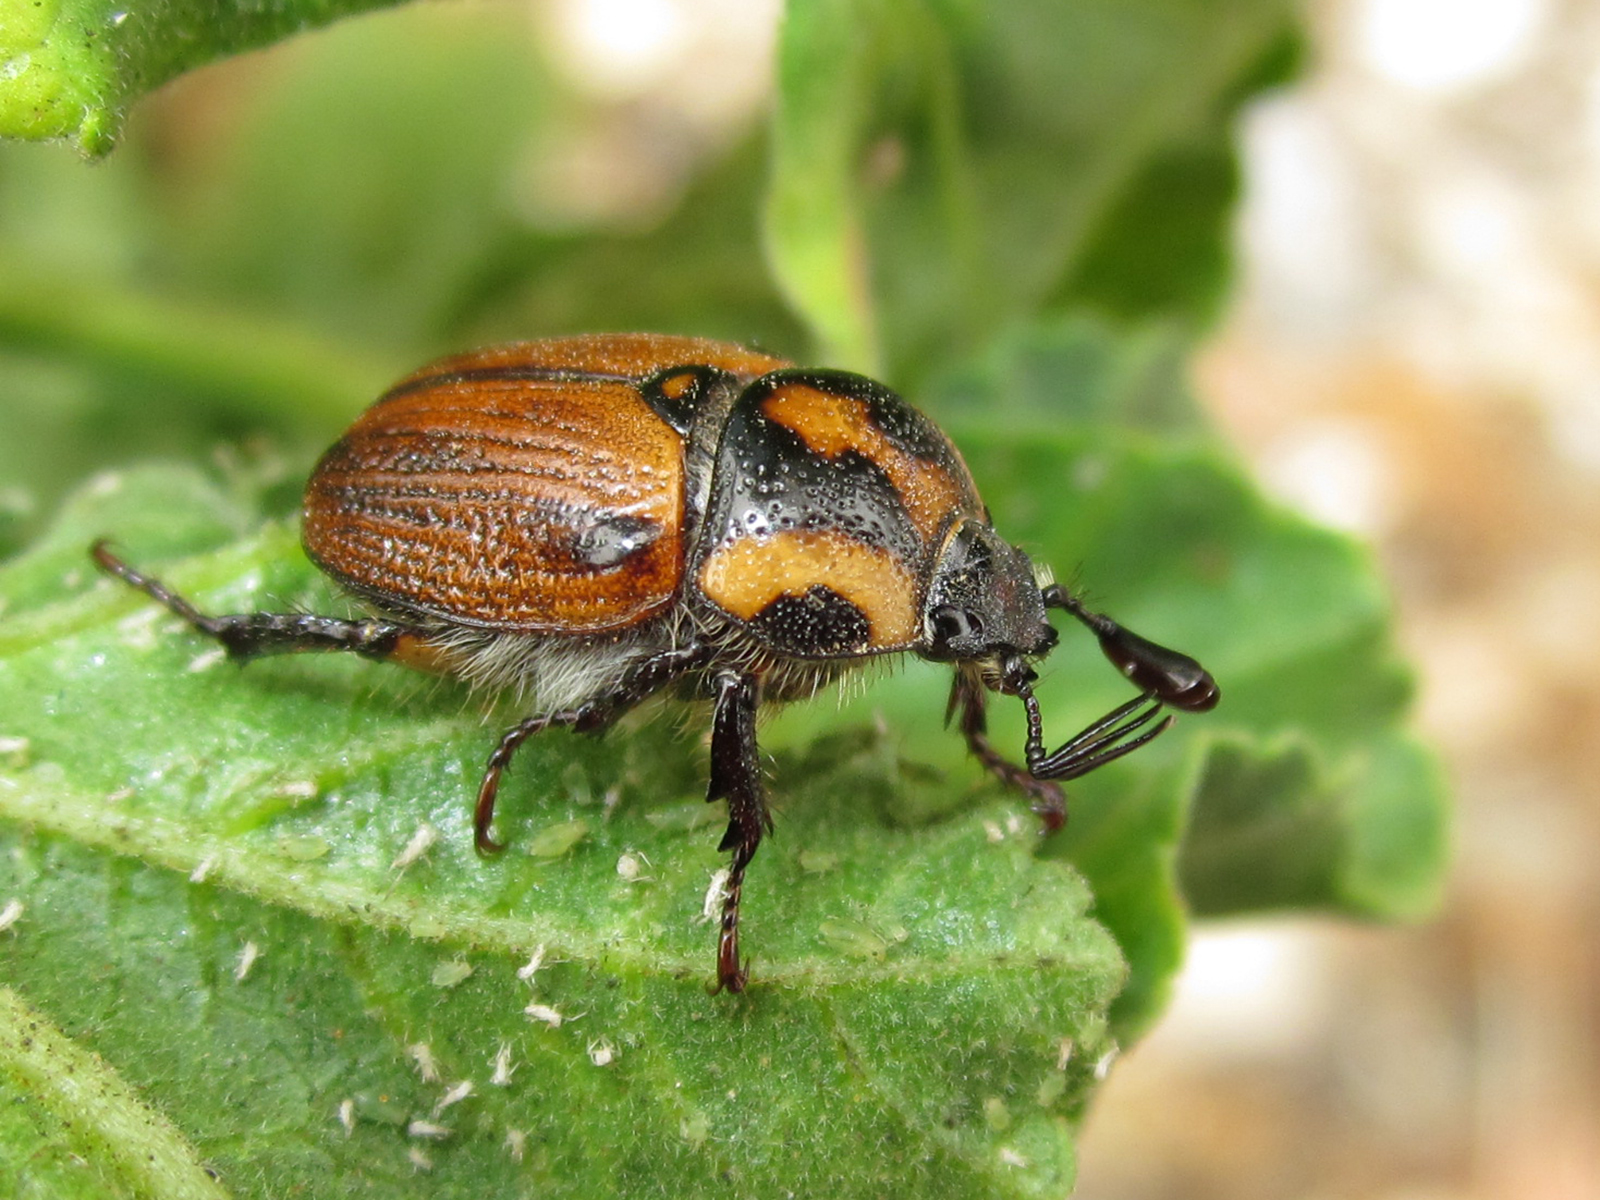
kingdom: Animalia
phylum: Arthropoda
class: Insecta
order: Coleoptera
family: Scarabaeidae
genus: Oryctomorphus
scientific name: Oryctomorphus maculicollis
